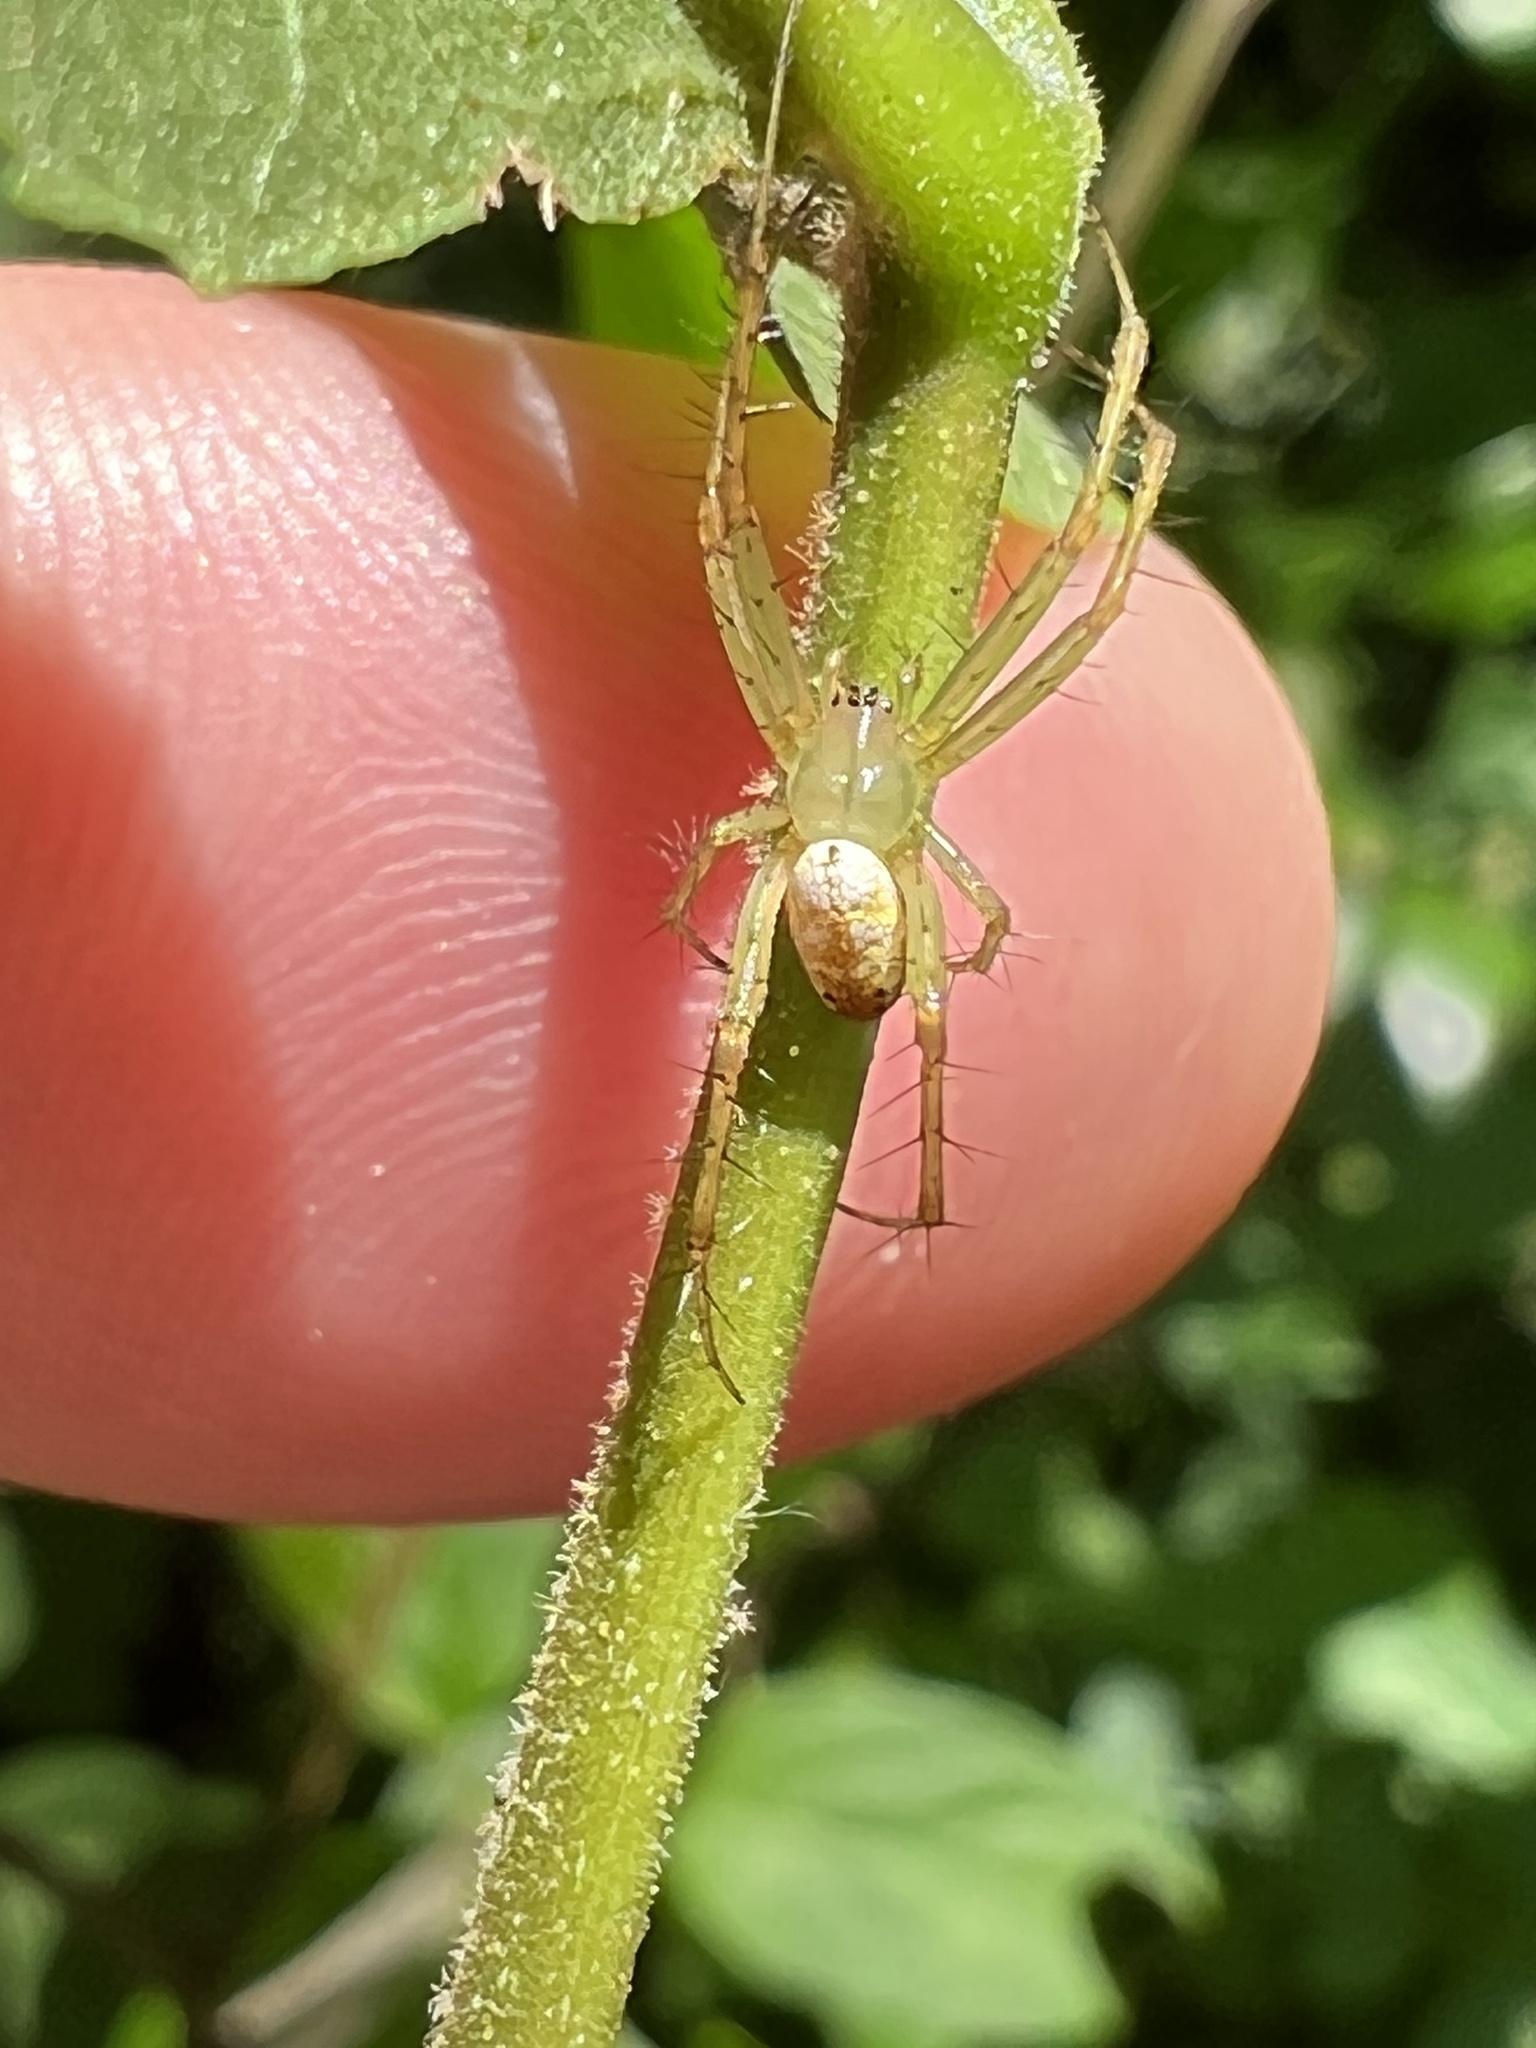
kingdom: Animalia
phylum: Arthropoda
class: Arachnida
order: Araneae
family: Araneidae
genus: Mangora
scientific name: Mangora maculata
